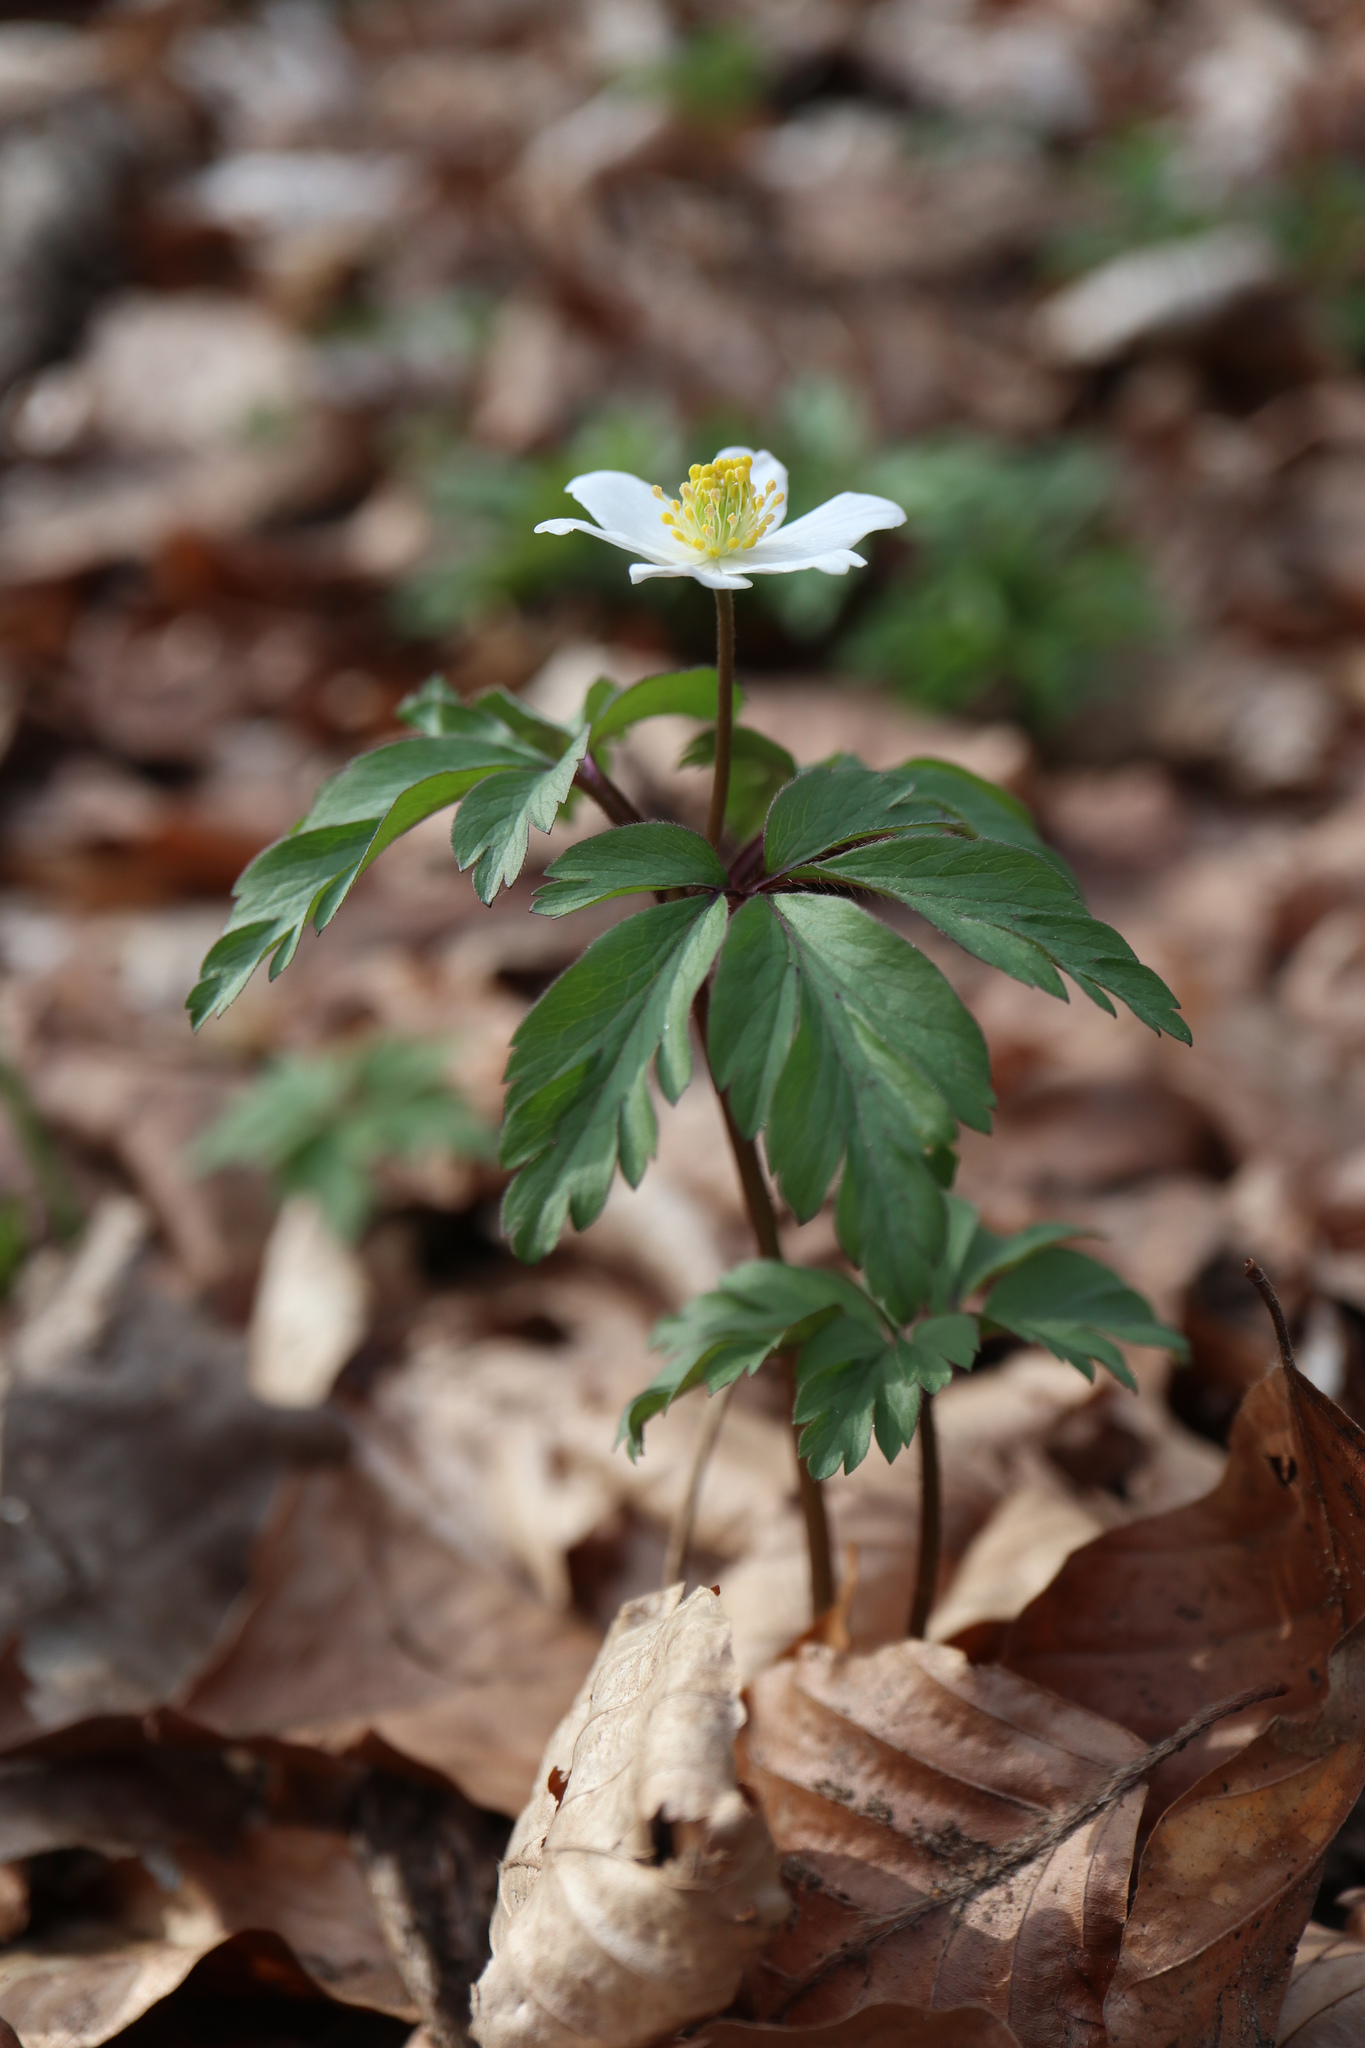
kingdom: Plantae
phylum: Tracheophyta
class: Magnoliopsida
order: Ranunculales
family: Ranunculaceae
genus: Anemone
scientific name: Anemone nemorosa
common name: Wood anemone
